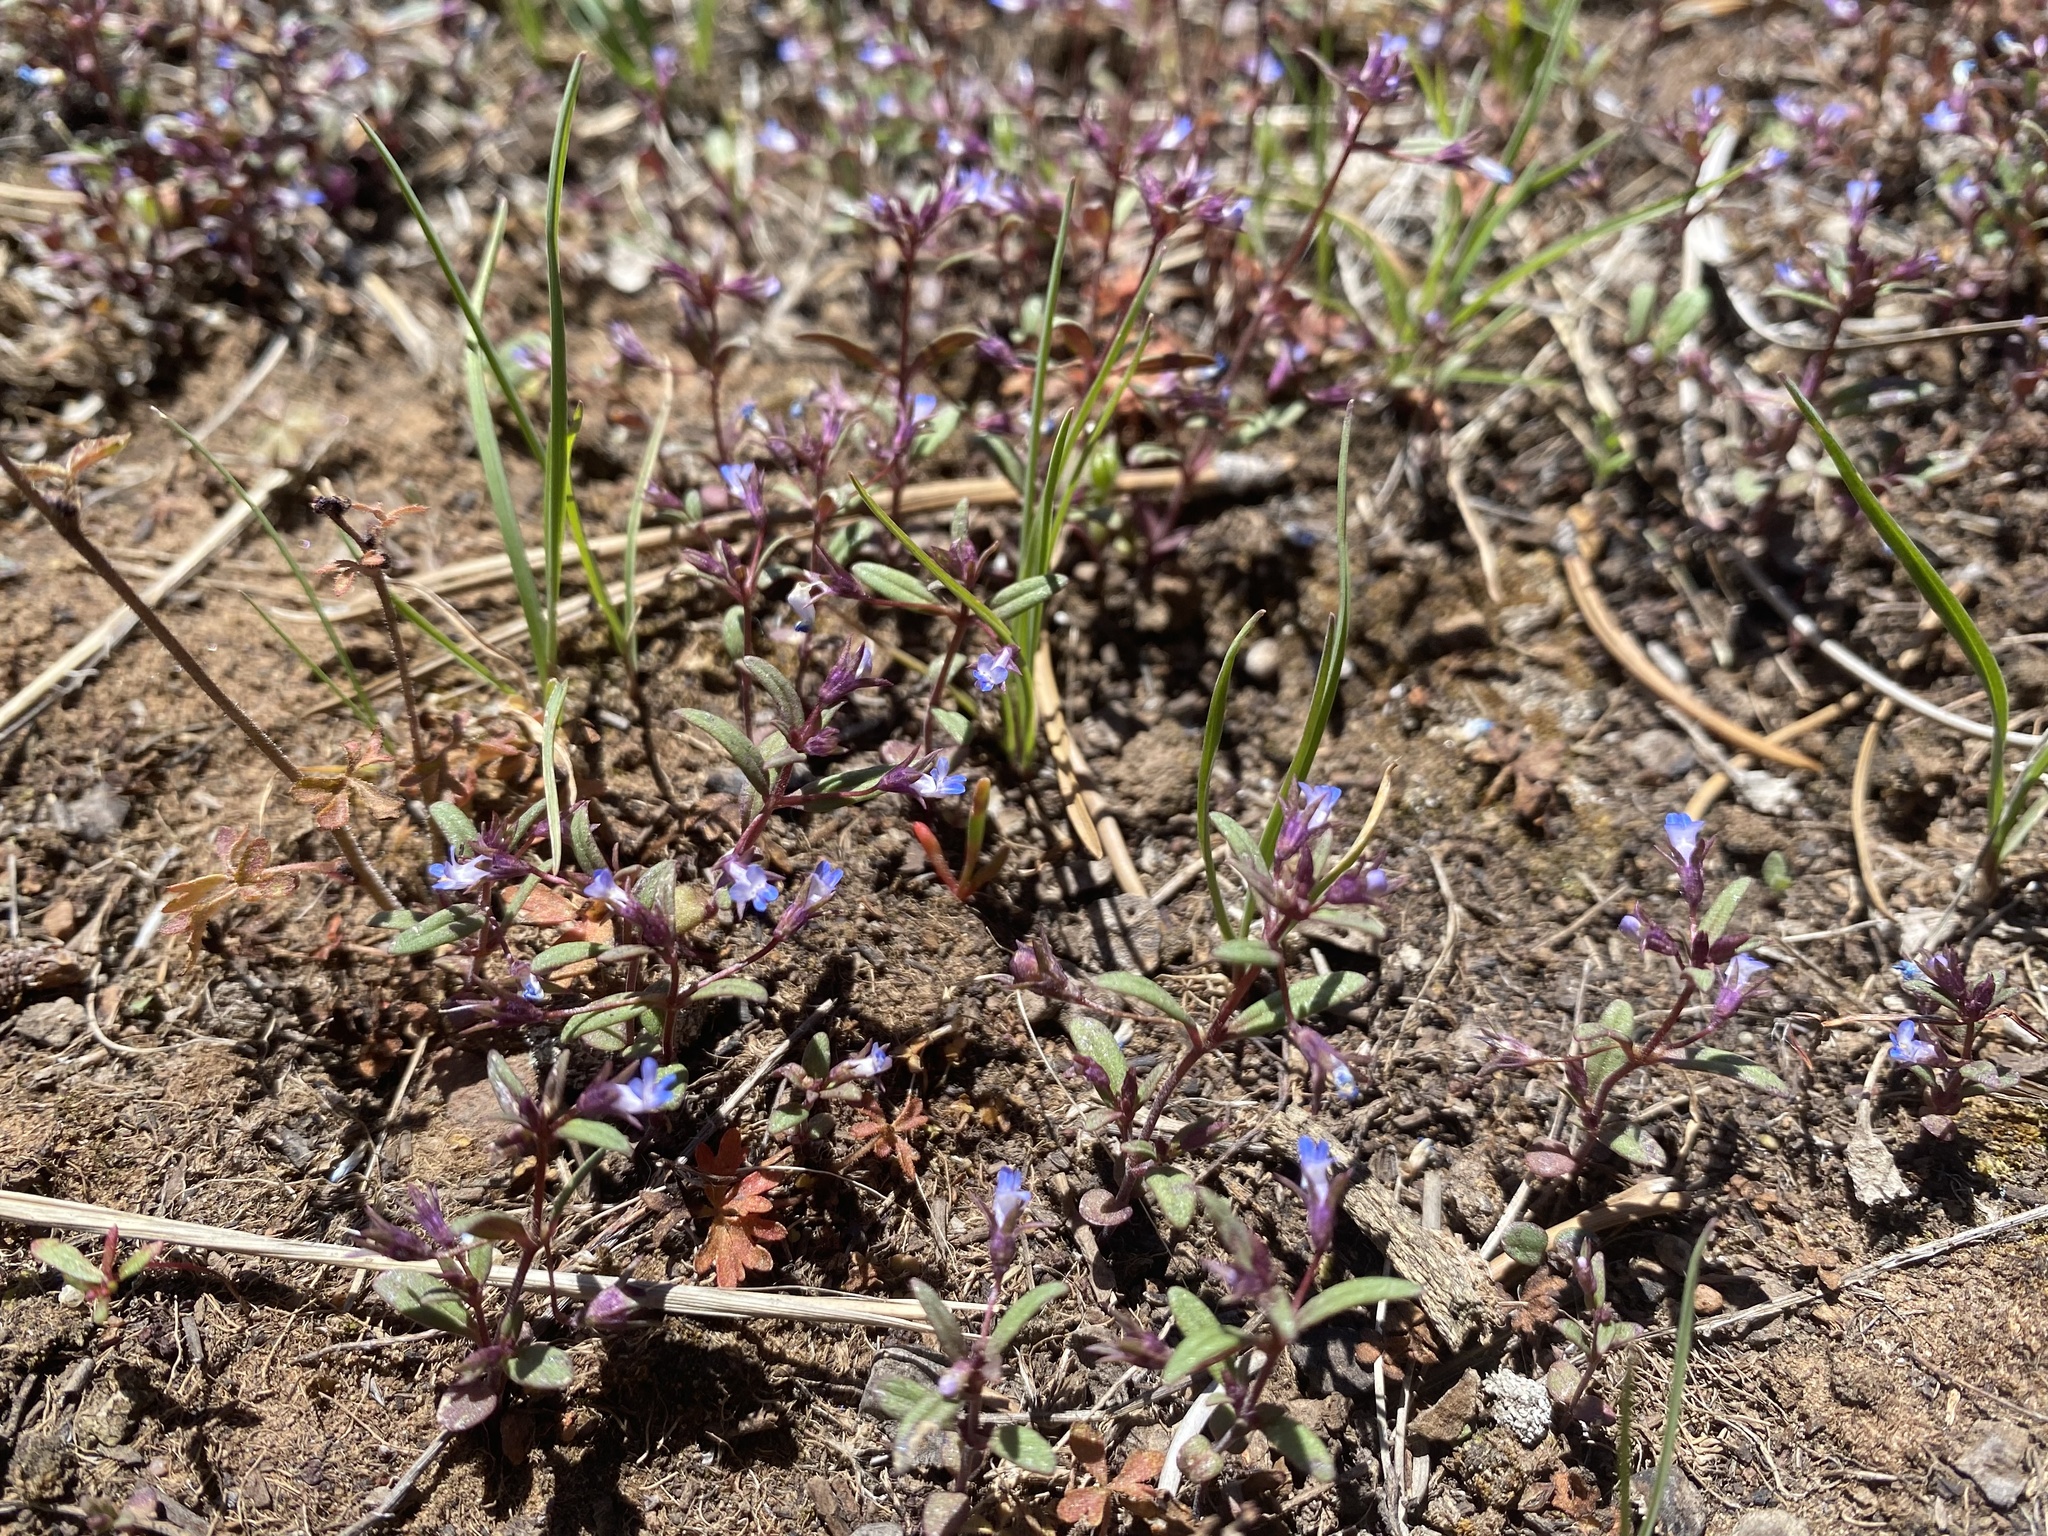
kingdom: Plantae
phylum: Tracheophyta
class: Magnoliopsida
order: Lamiales
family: Plantaginaceae
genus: Collinsia
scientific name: Collinsia parviflora
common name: Blue-lips
